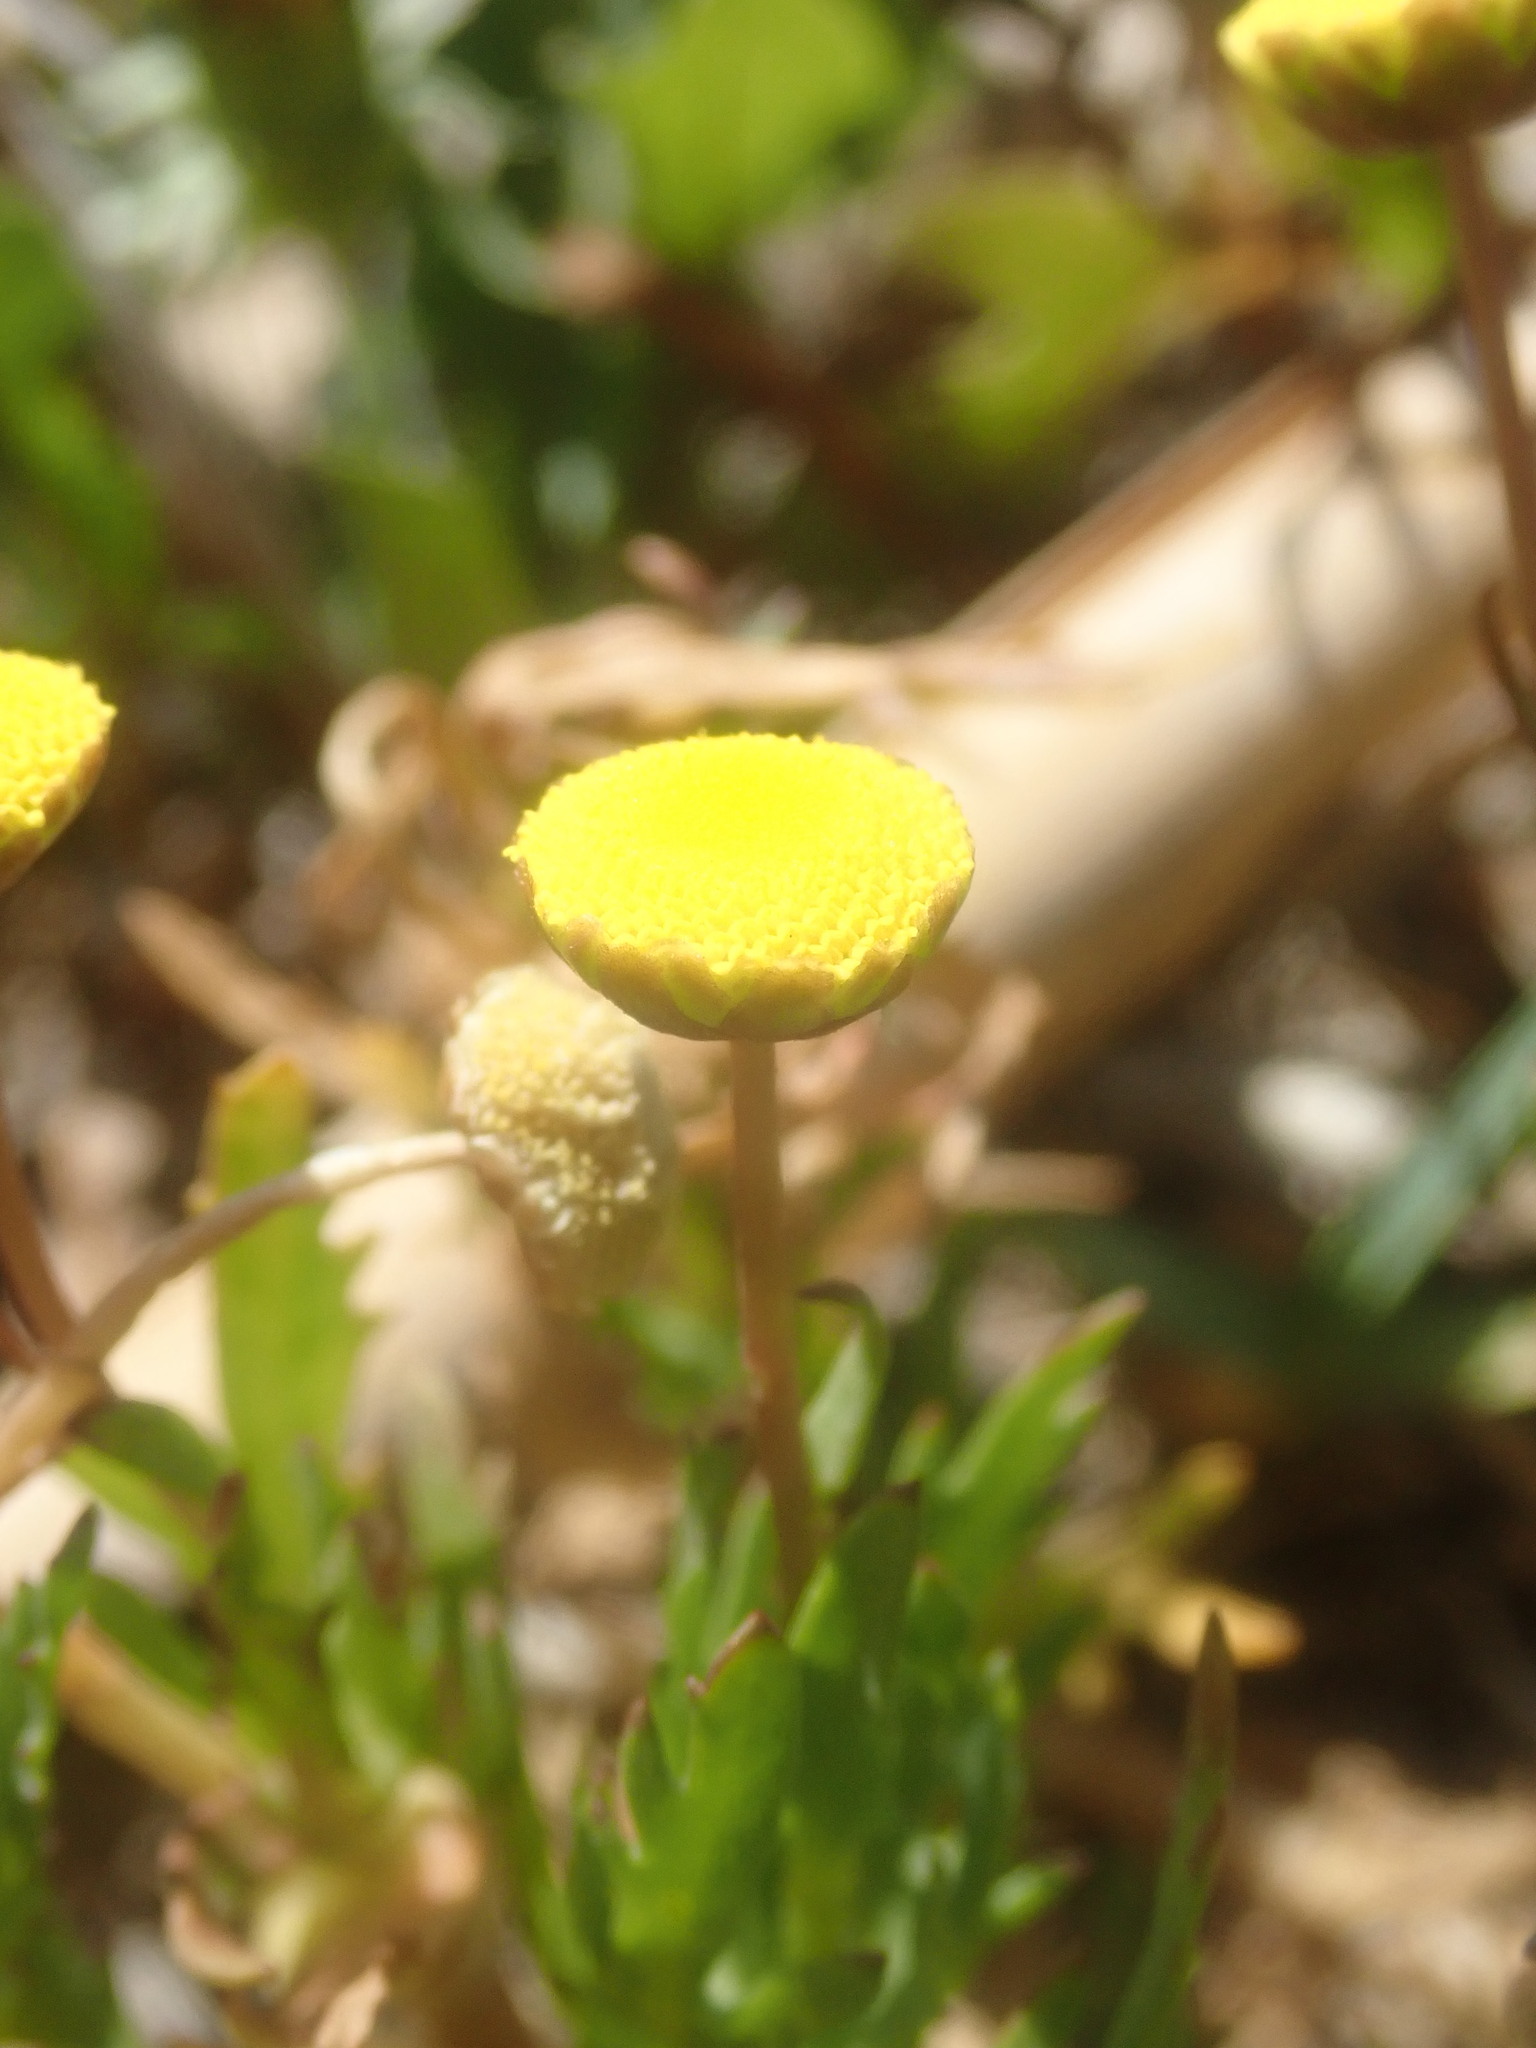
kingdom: Plantae
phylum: Tracheophyta
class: Magnoliopsida
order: Asterales
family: Asteraceae
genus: Cotula
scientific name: Cotula coronopifolia
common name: Buttonweed
